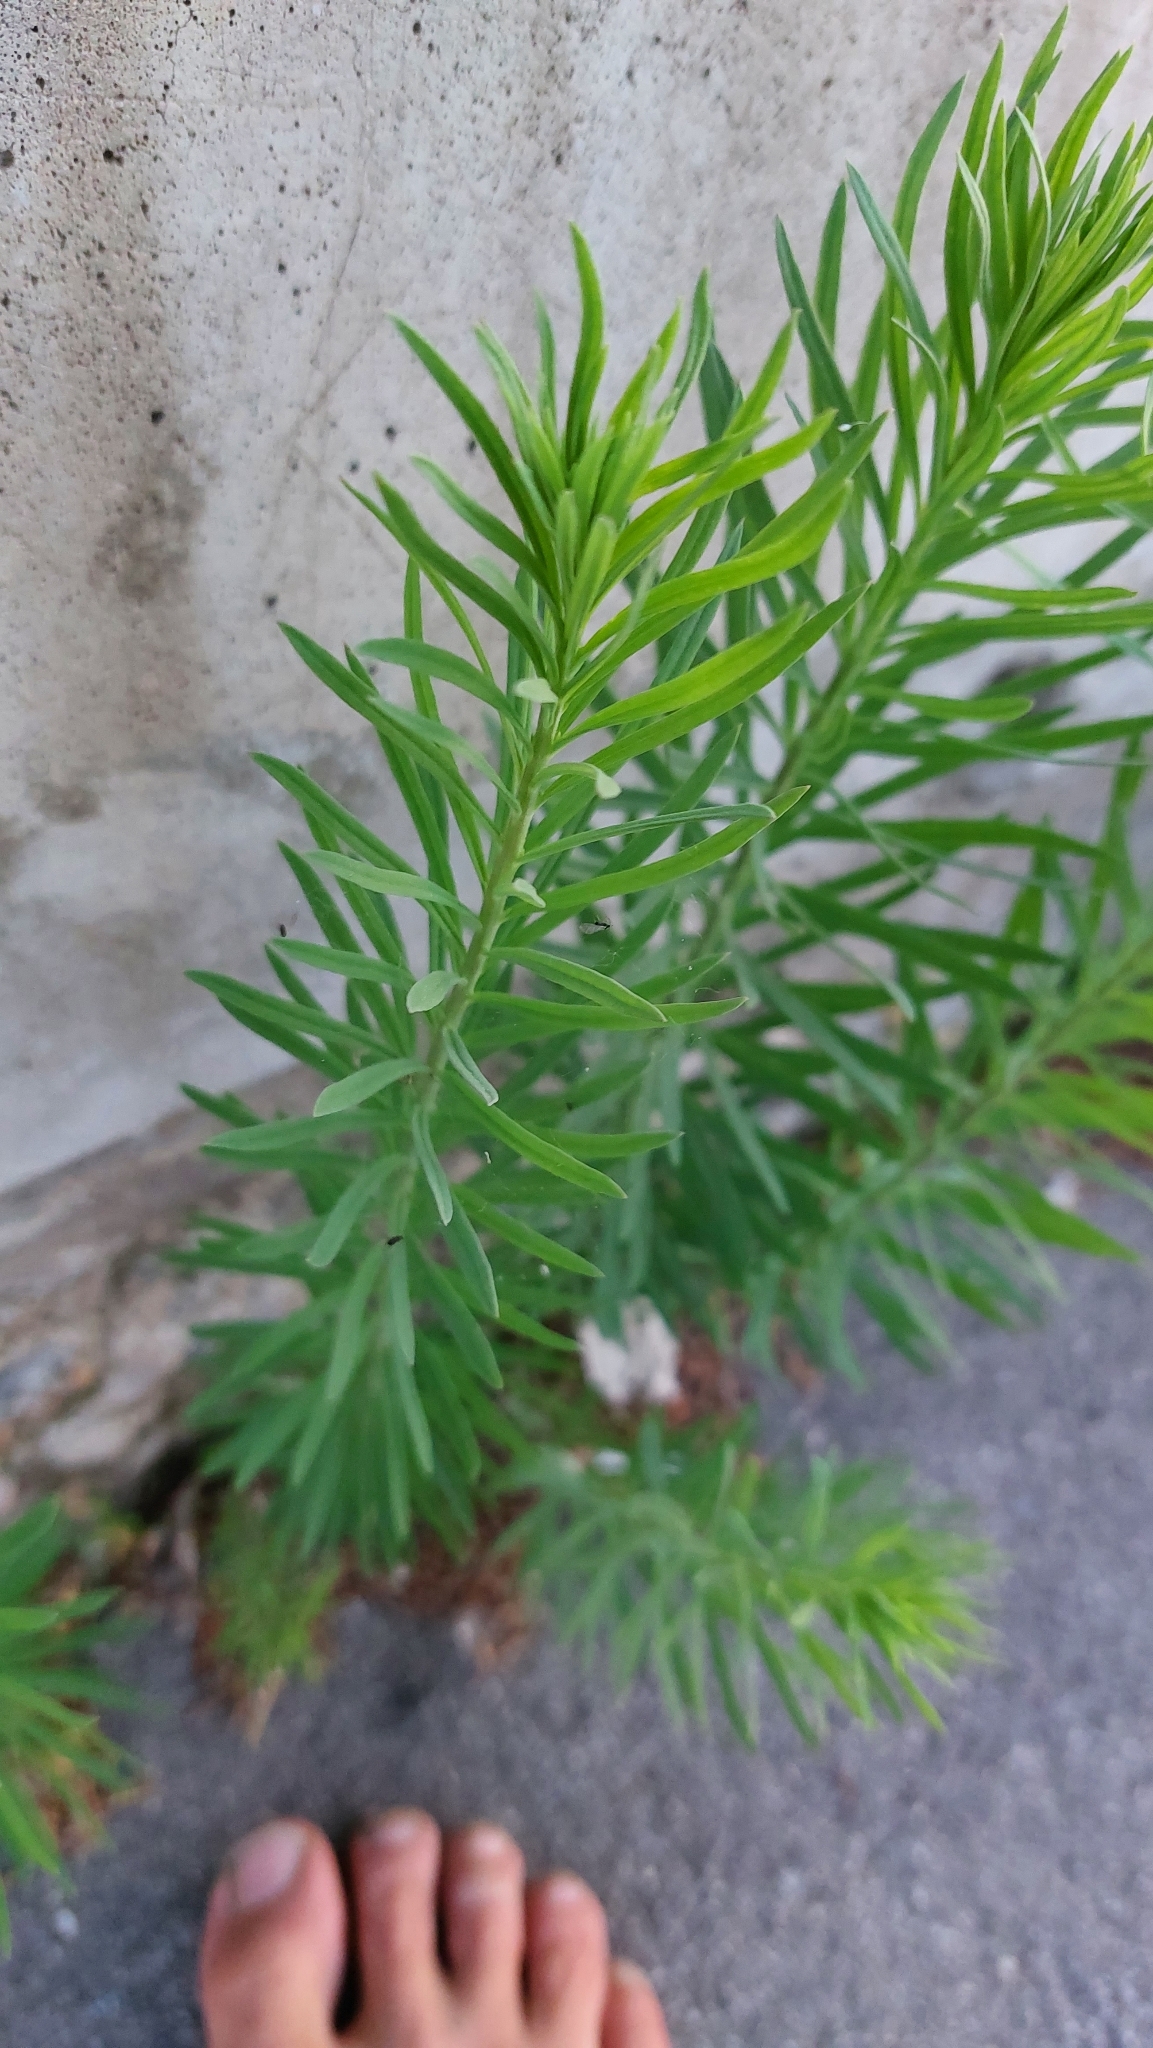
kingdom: Plantae
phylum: Tracheophyta
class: Magnoliopsida
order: Lamiales
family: Plantaginaceae
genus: Linaria
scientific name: Linaria vulgaris
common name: Butter and eggs
